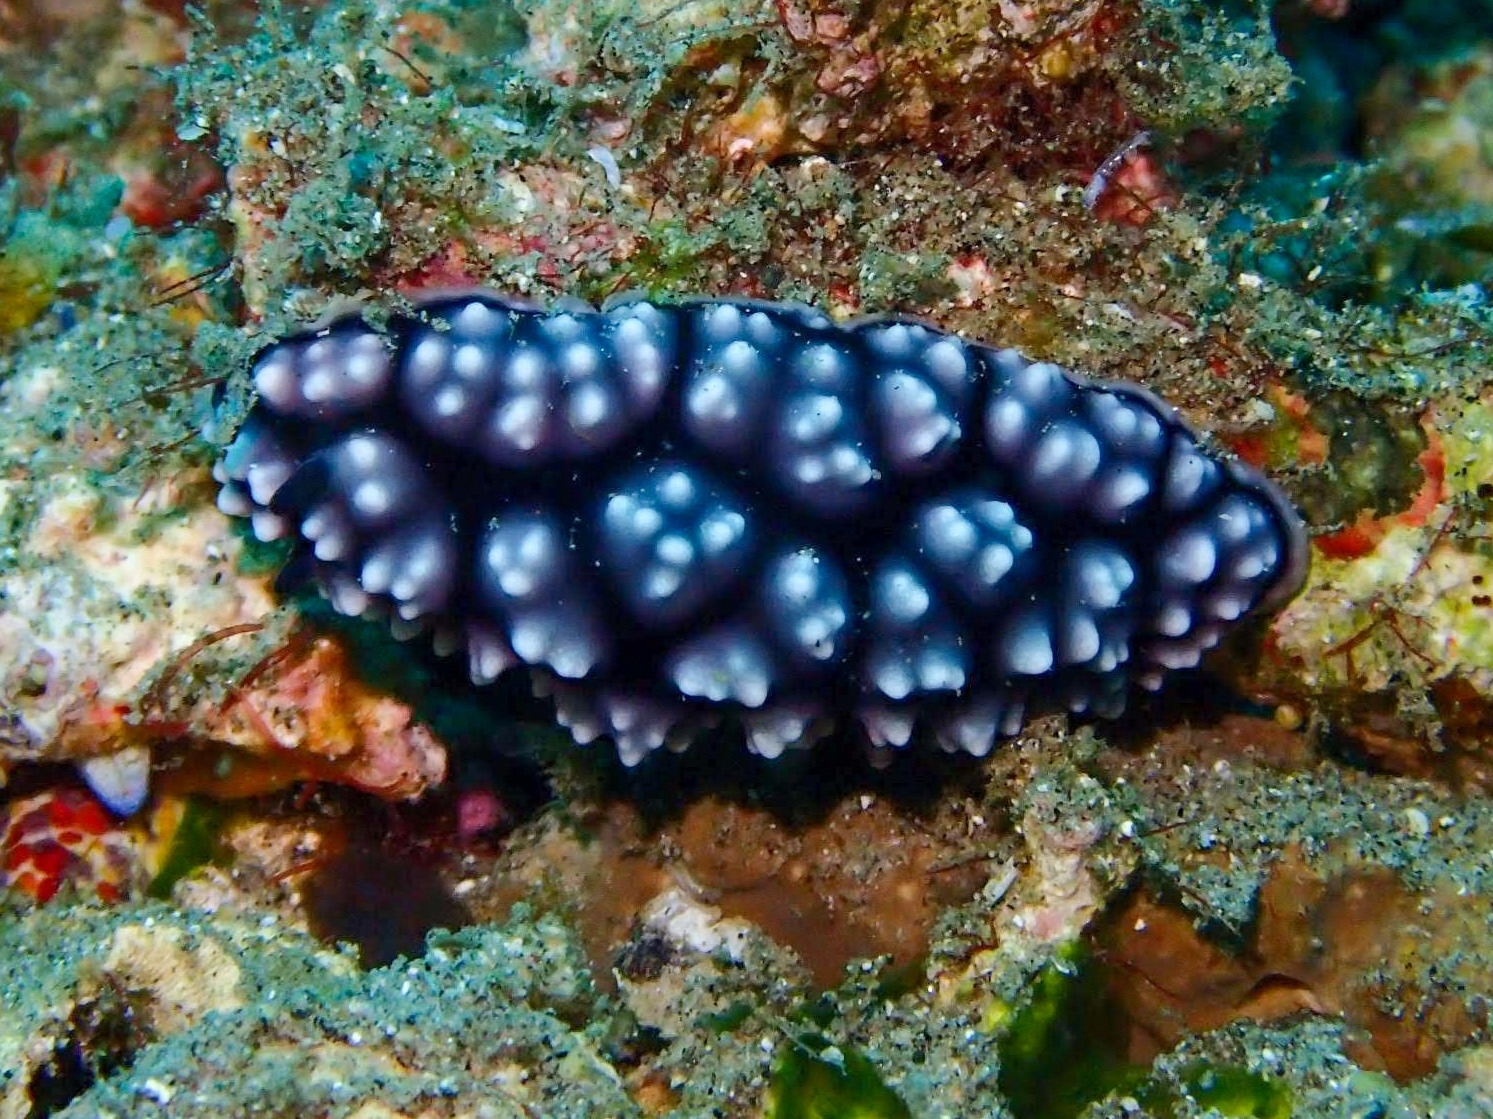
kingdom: Animalia
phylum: Mollusca
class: Gastropoda
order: Nudibranchia
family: Phyllidiidae
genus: Phyllidiella
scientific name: Phyllidiella pustulosa
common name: Pustular phyllidia
